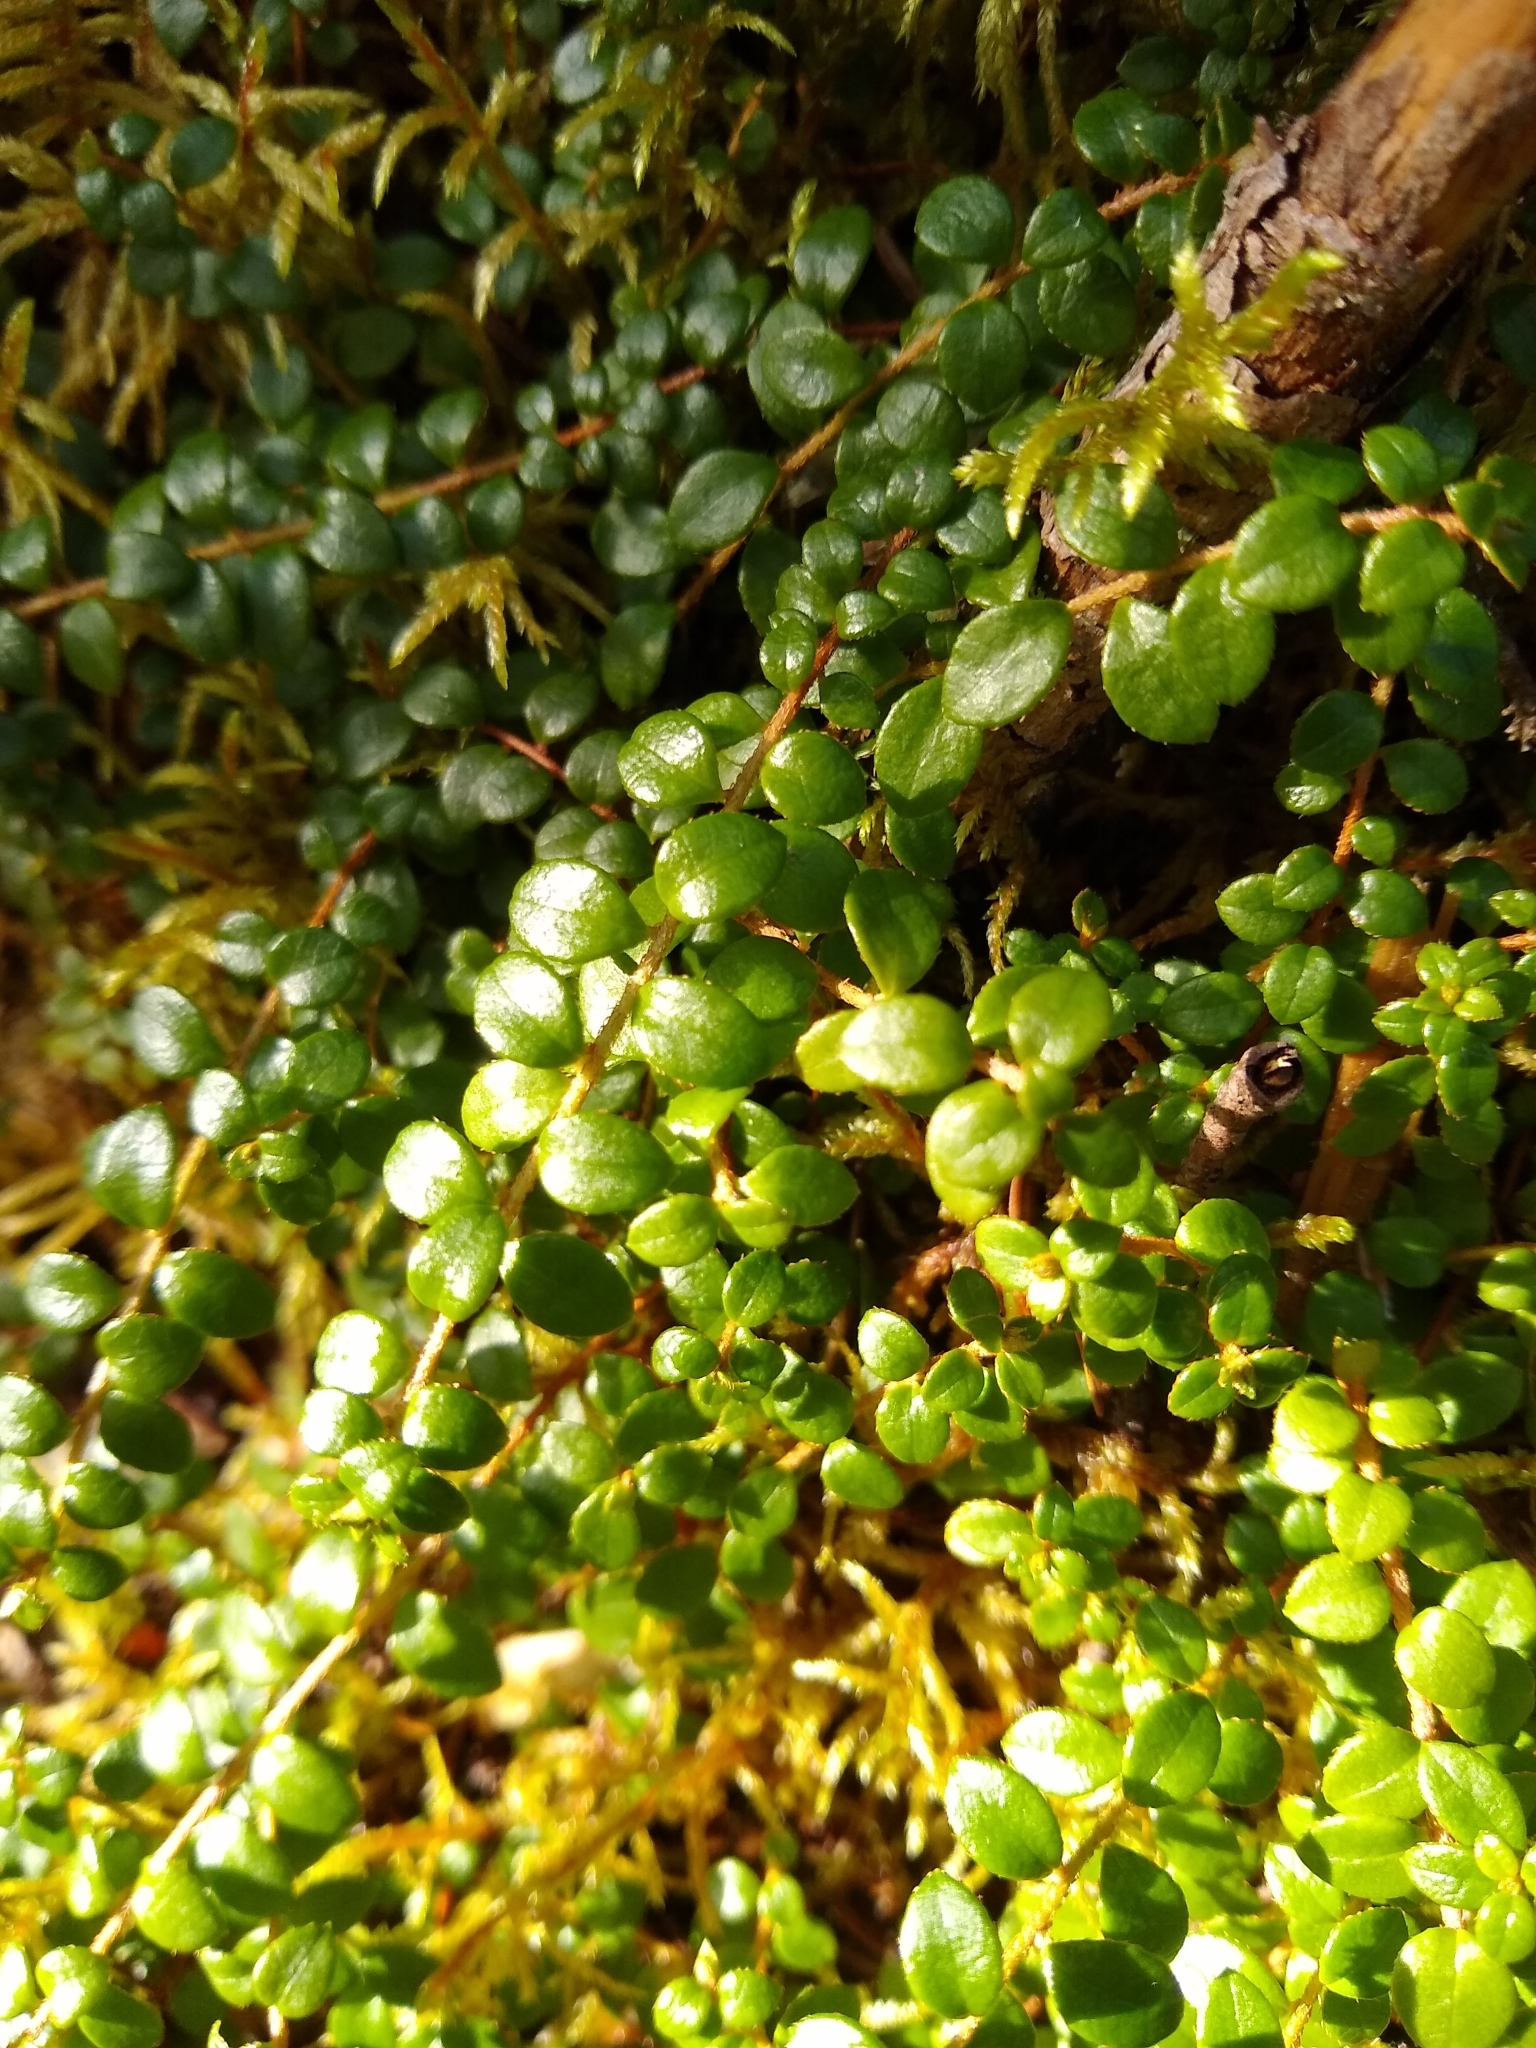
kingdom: Plantae
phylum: Tracheophyta
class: Magnoliopsida
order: Ericales
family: Ericaceae
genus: Gaultheria
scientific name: Gaultheria hispidula
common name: Cancer wintergreen
